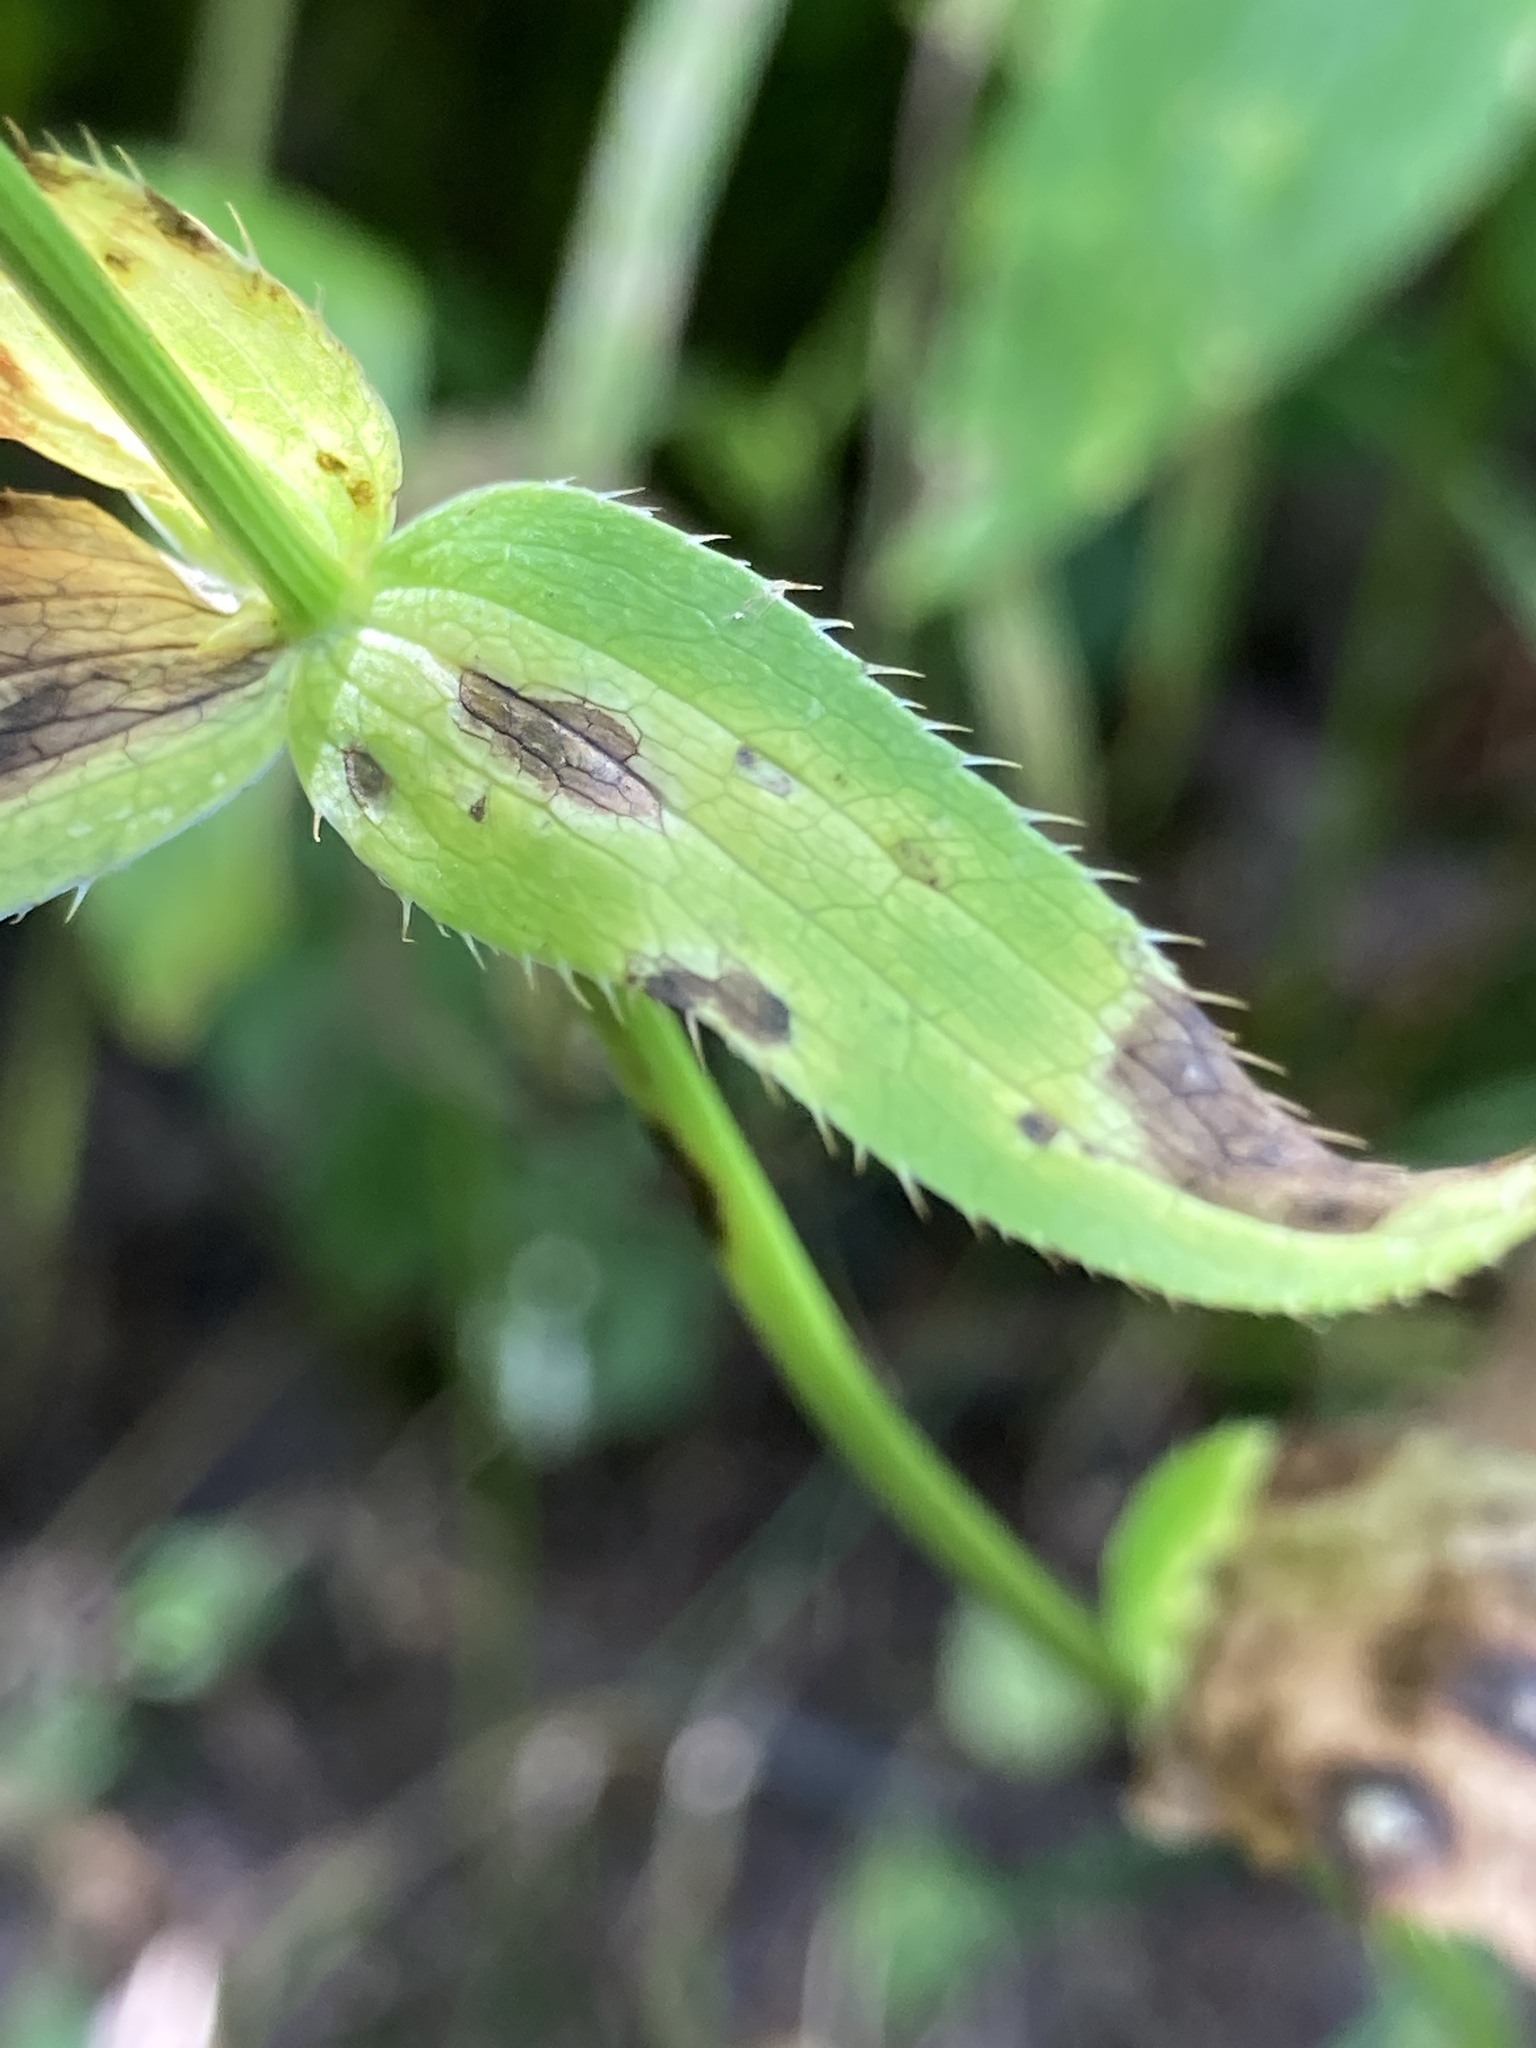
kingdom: Plantae
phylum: Tracheophyta
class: Magnoliopsida
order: Apiales
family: Apiaceae
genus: Astrantia
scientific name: Astrantia maxima
